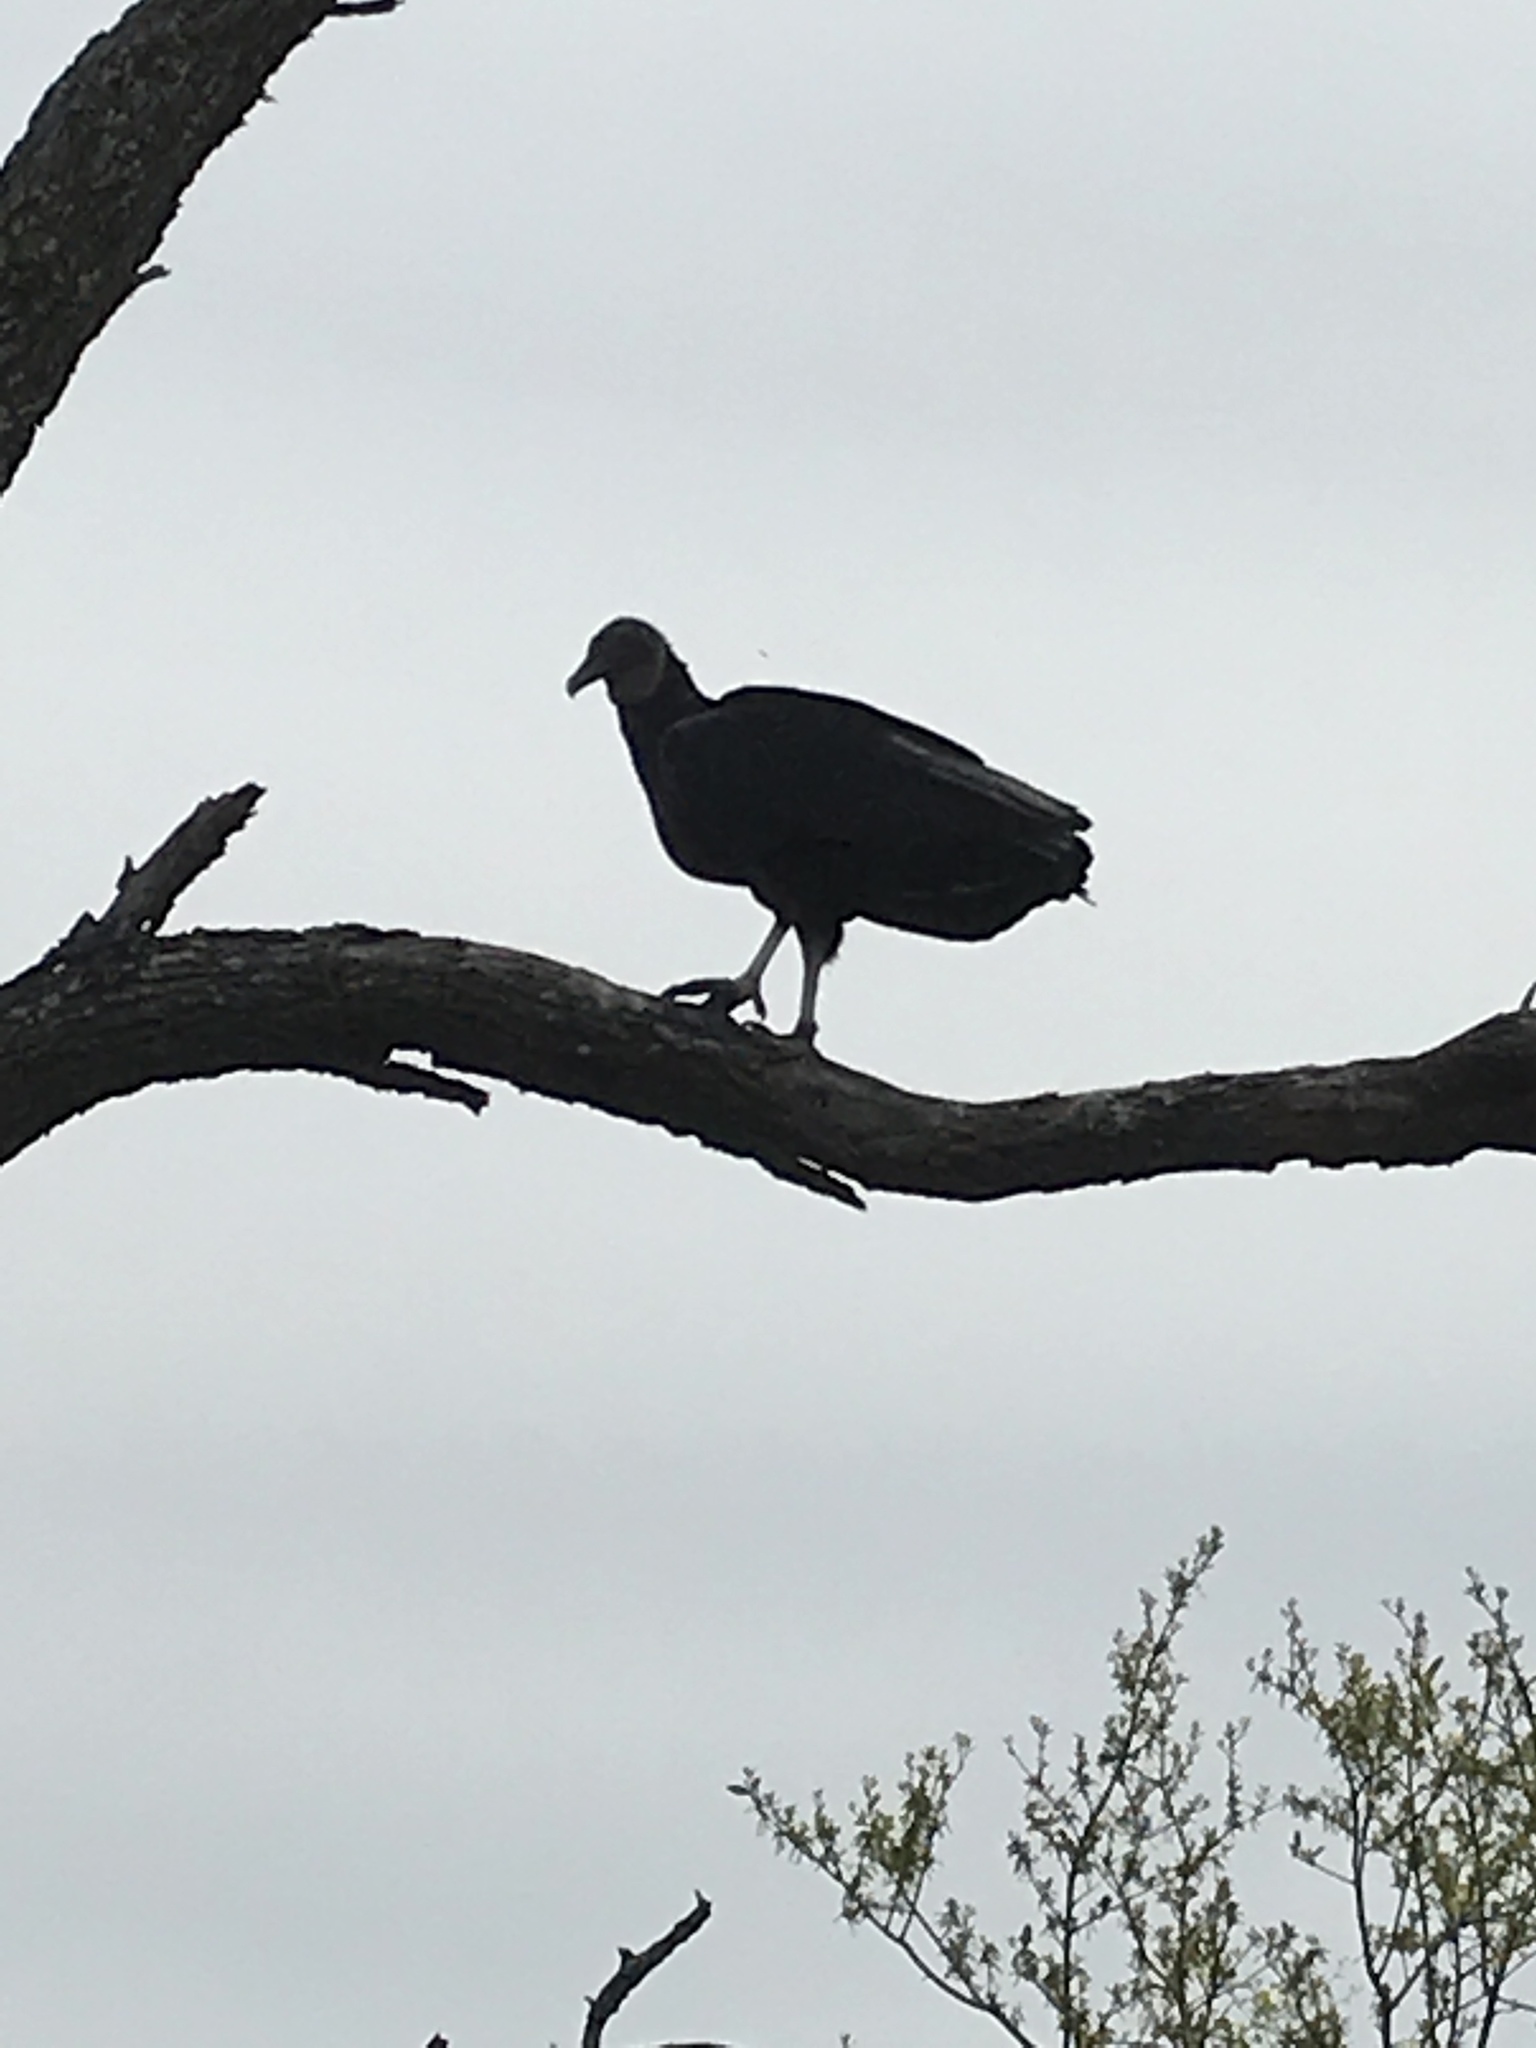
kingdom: Animalia
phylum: Chordata
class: Aves
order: Accipitriformes
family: Cathartidae
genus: Coragyps
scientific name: Coragyps atratus
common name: Black vulture
